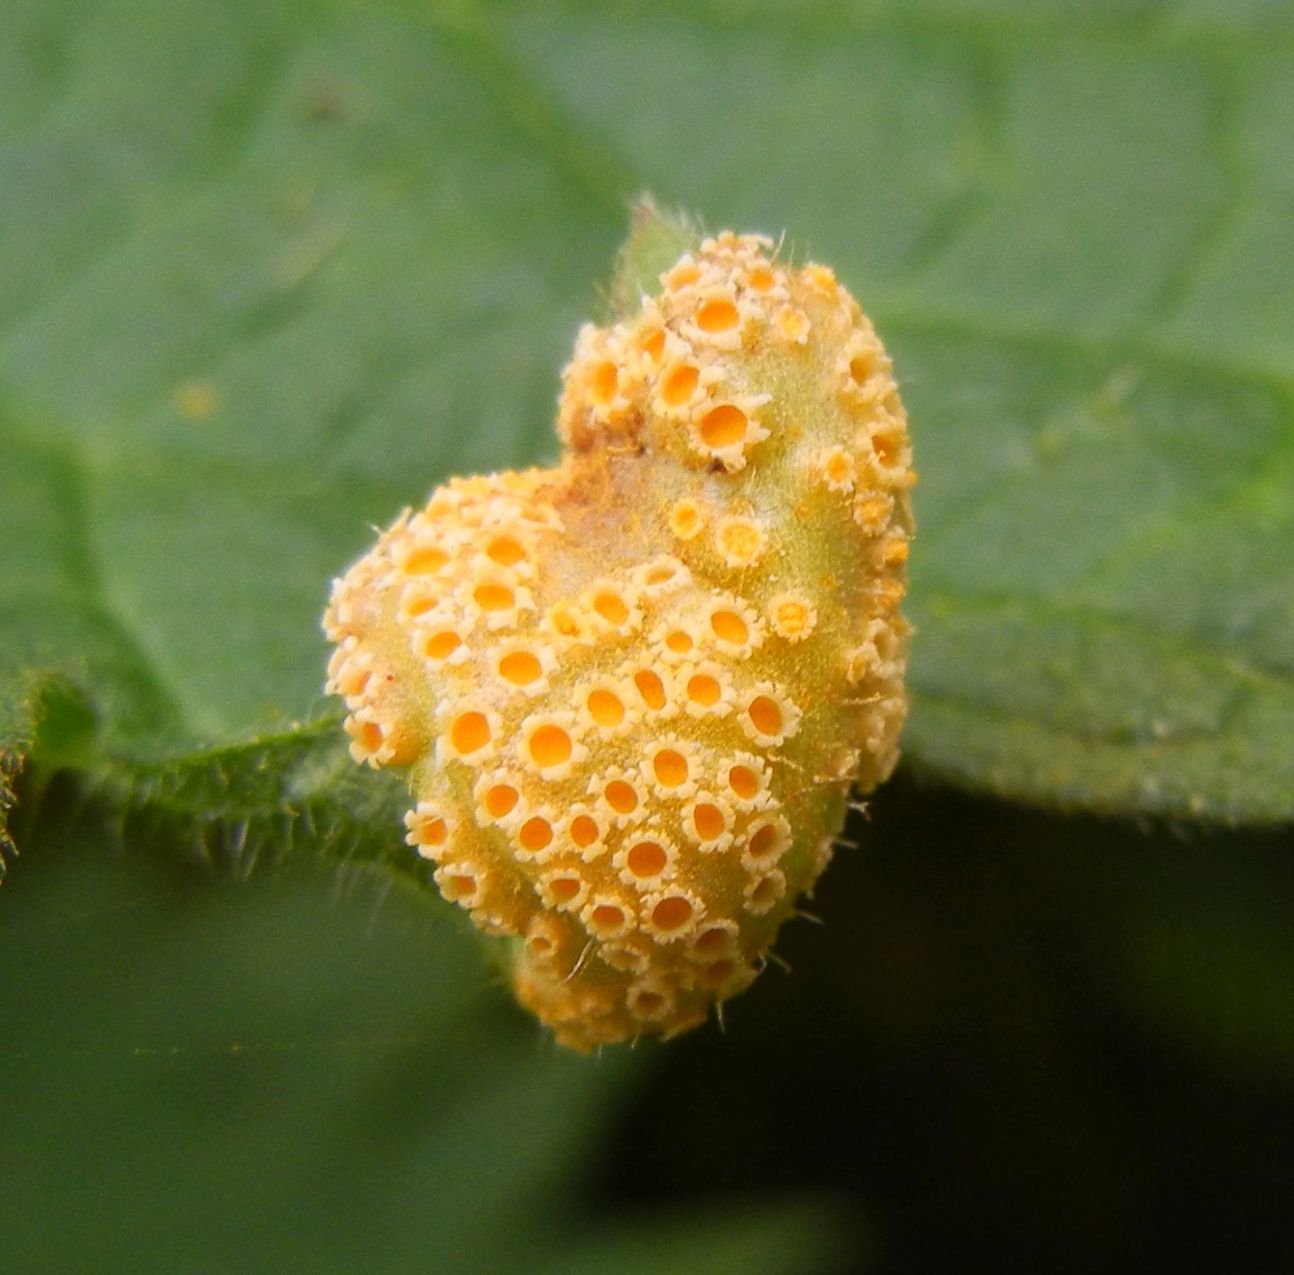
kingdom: Fungi
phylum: Basidiomycota
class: Pucciniomycetes
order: Pucciniales
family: Pucciniaceae
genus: Puccinia
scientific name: Puccinia urticata
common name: Nettle clustercup rust fungus
